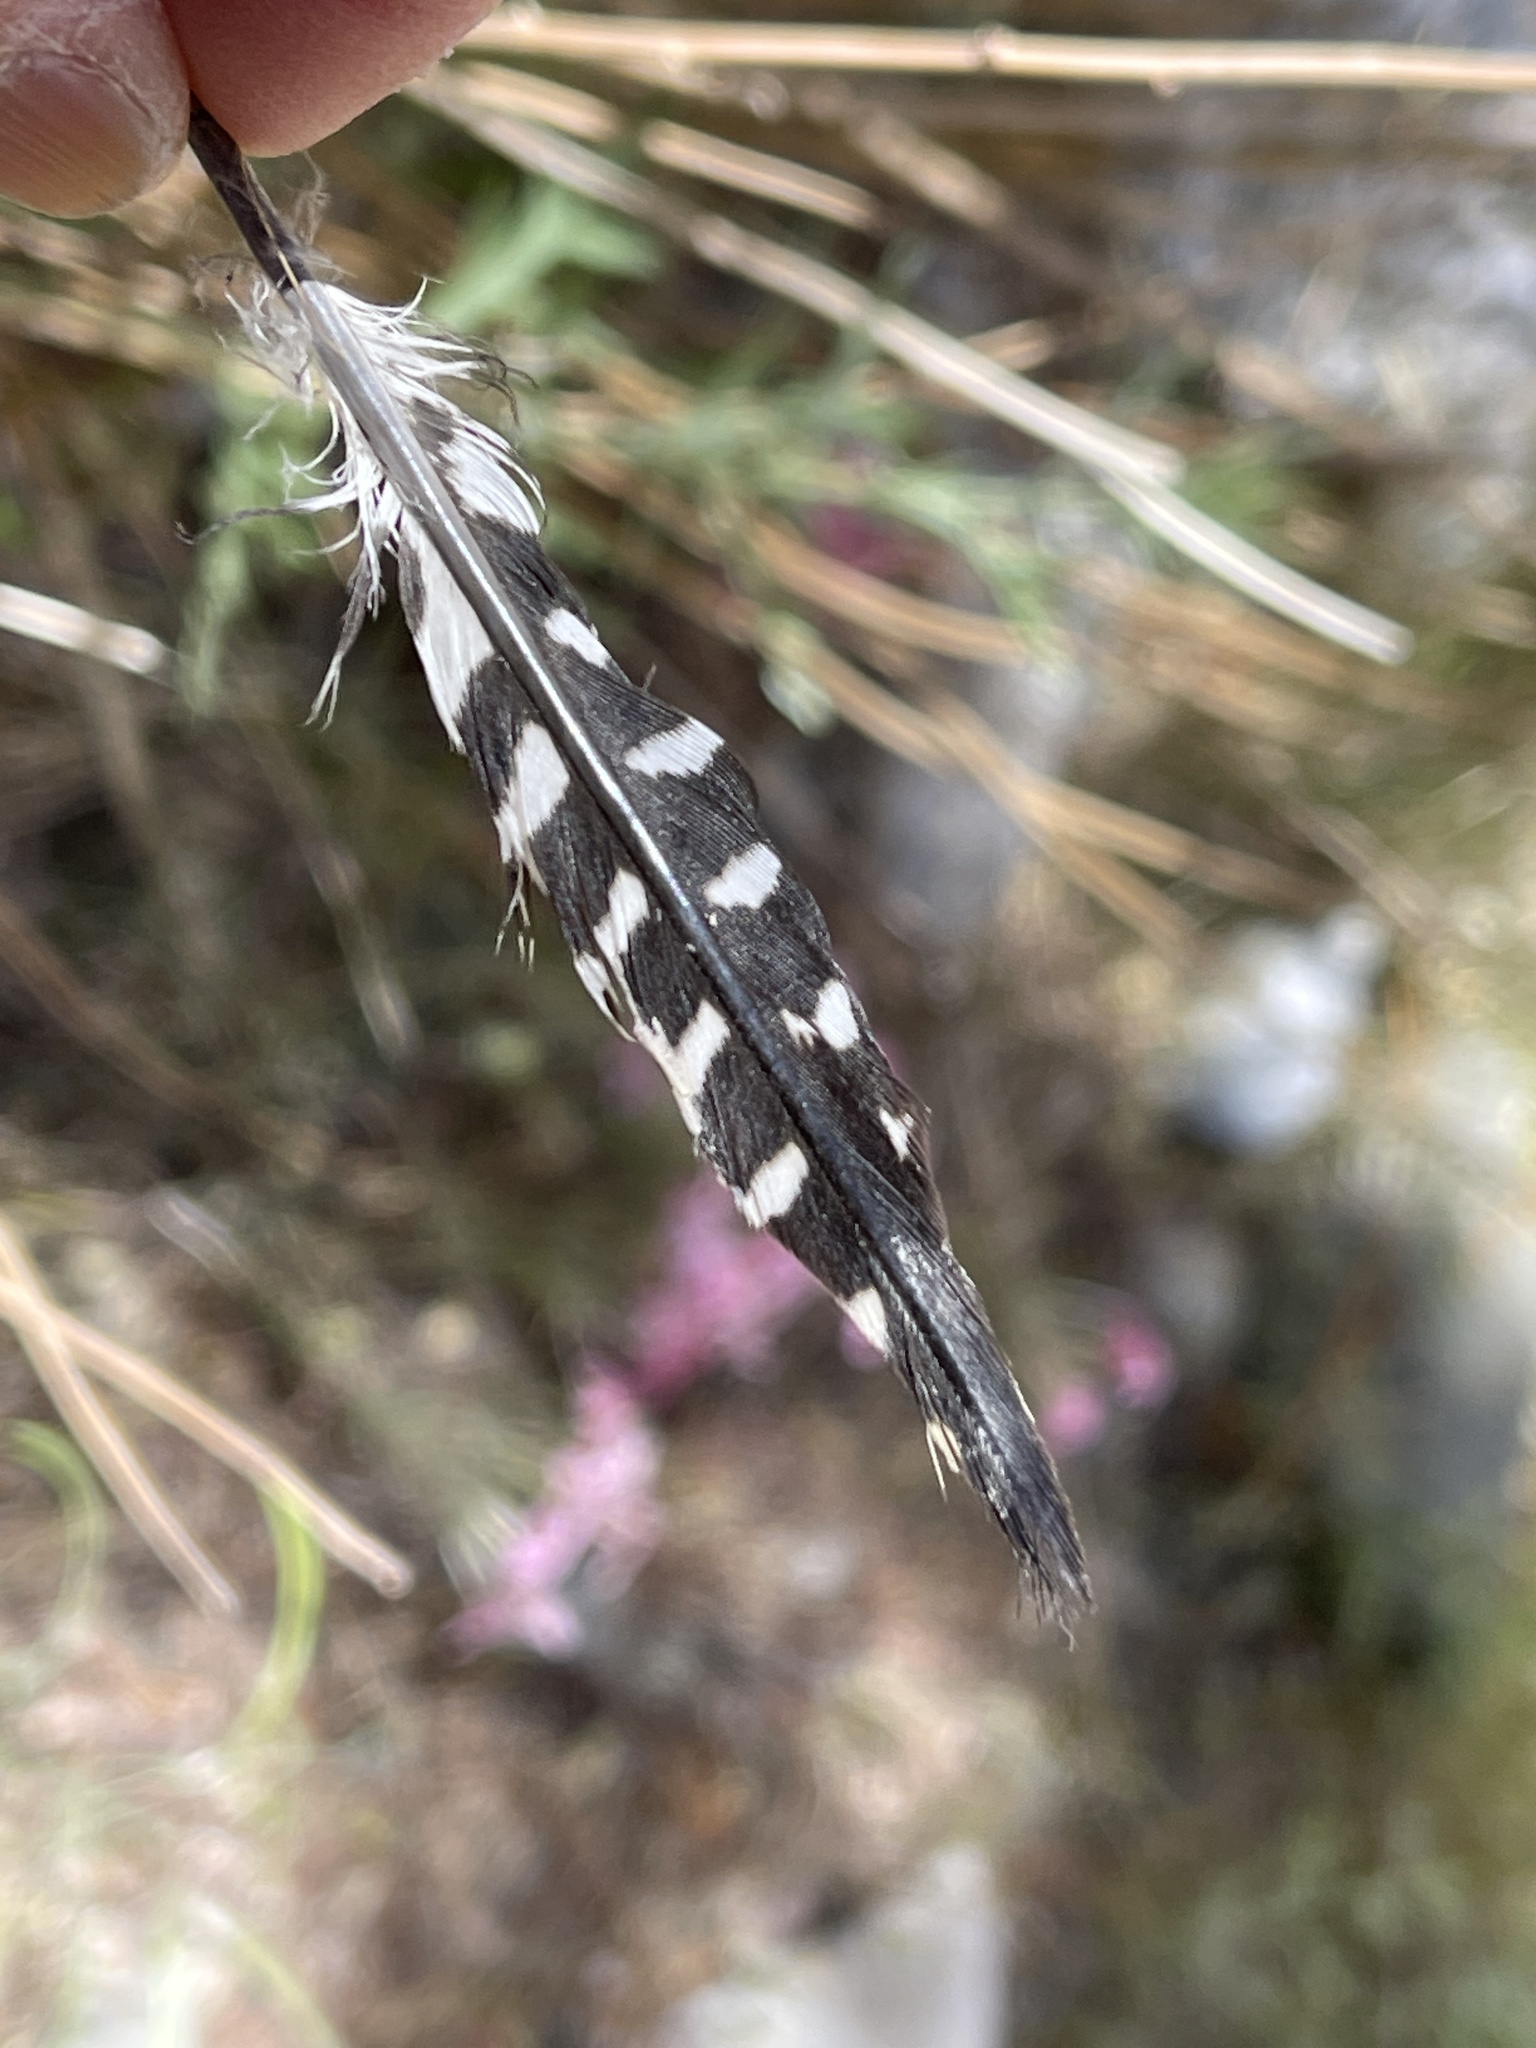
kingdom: Animalia
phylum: Chordata
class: Aves
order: Piciformes
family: Picidae
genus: Sphyrapicus
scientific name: Sphyrapicus thyroideus
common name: Williamson's sapsucker
